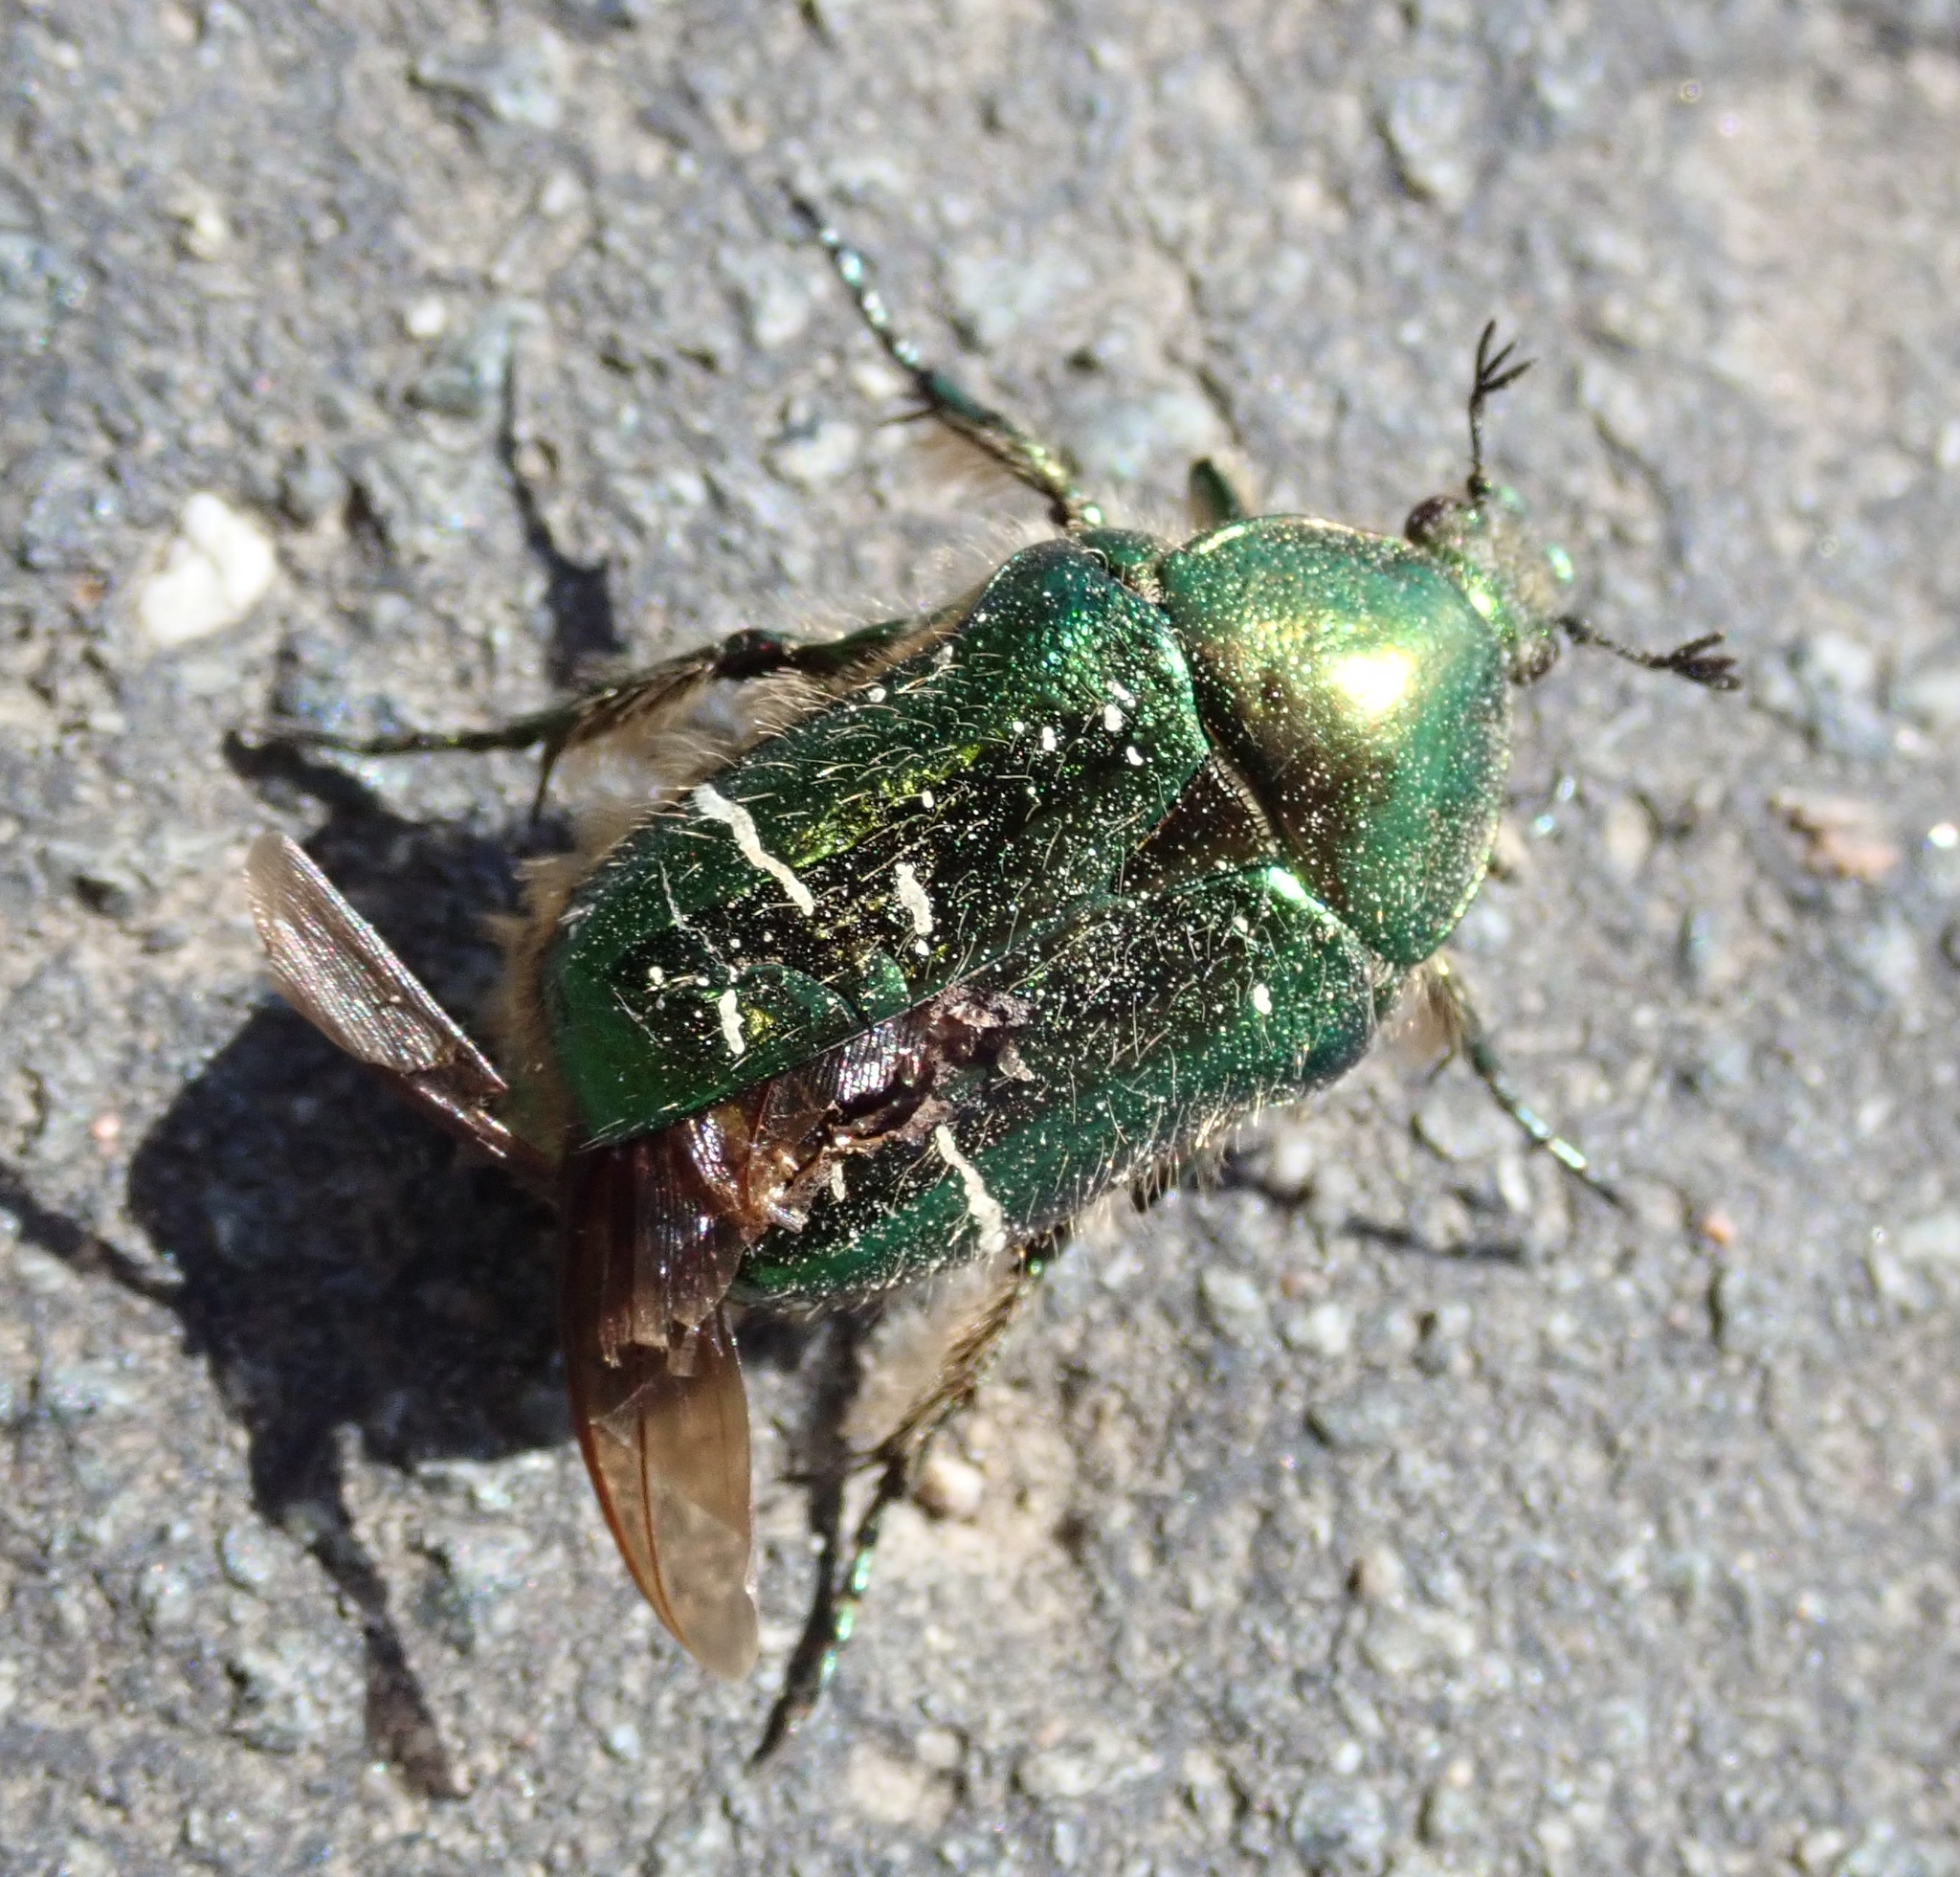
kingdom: Animalia
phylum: Arthropoda
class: Insecta
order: Coleoptera
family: Scarabaeidae
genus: Cetonia
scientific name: Cetonia aurata
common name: Rose chafer
